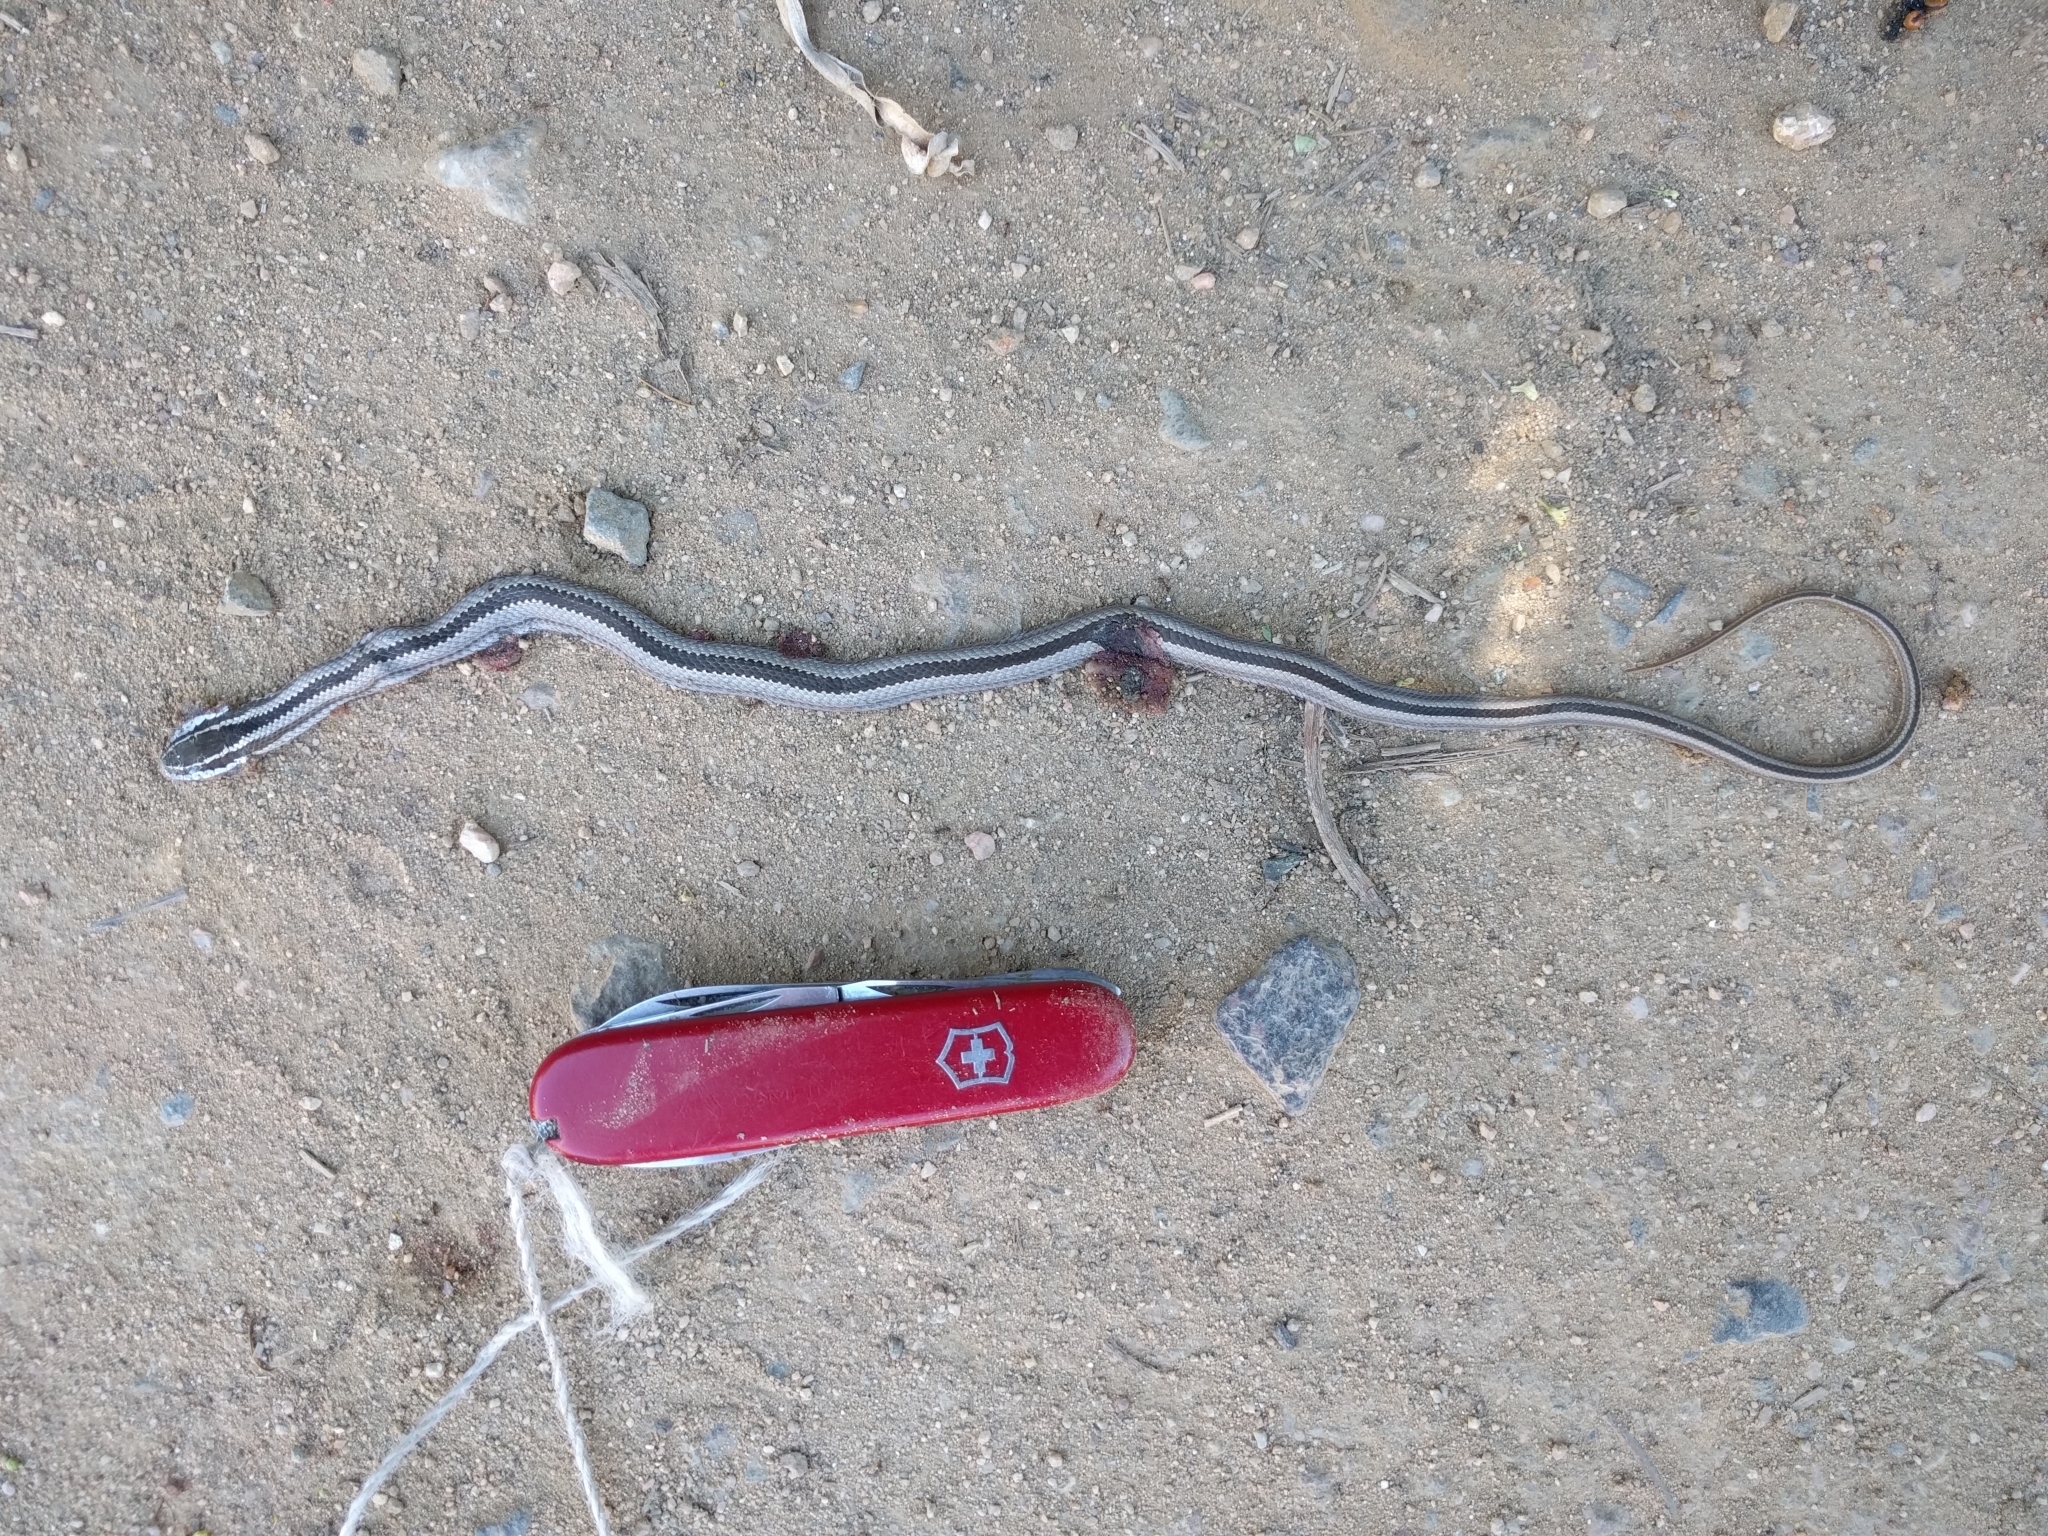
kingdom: Animalia
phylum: Chordata
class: Squamata
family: Colubridae
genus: Philodryas
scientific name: Philodryas chamissonis
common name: Chilean green racer
